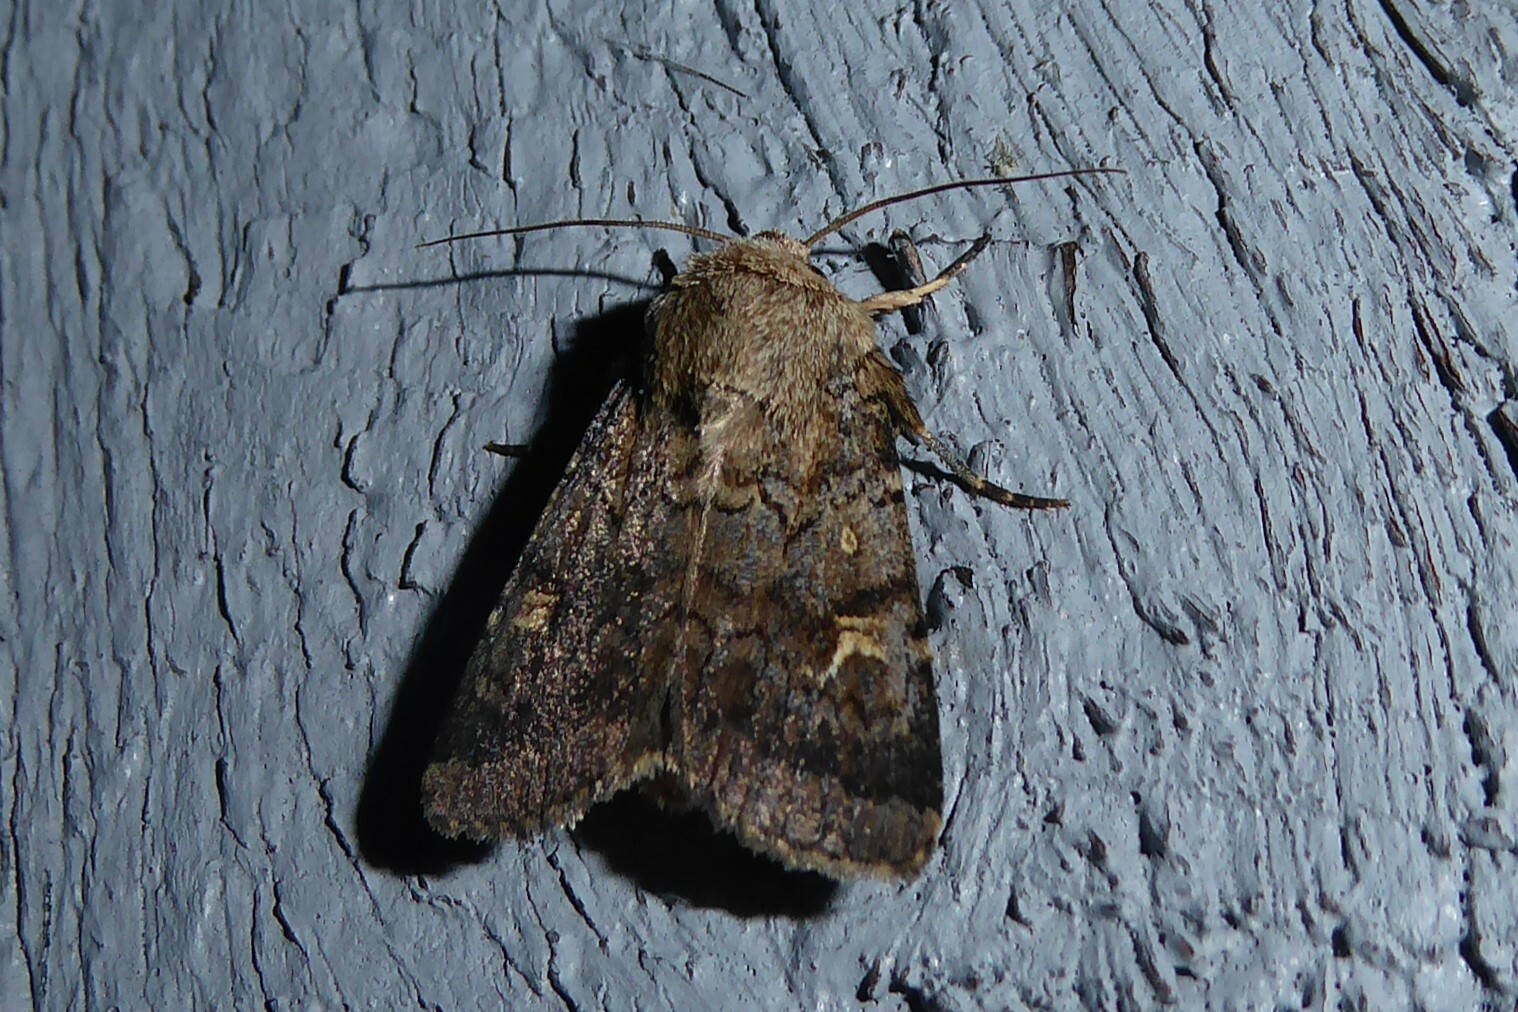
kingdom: Animalia
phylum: Arthropoda
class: Insecta
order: Lepidoptera
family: Noctuidae
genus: Proteuxoa
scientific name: Proteuxoa tetronycha
